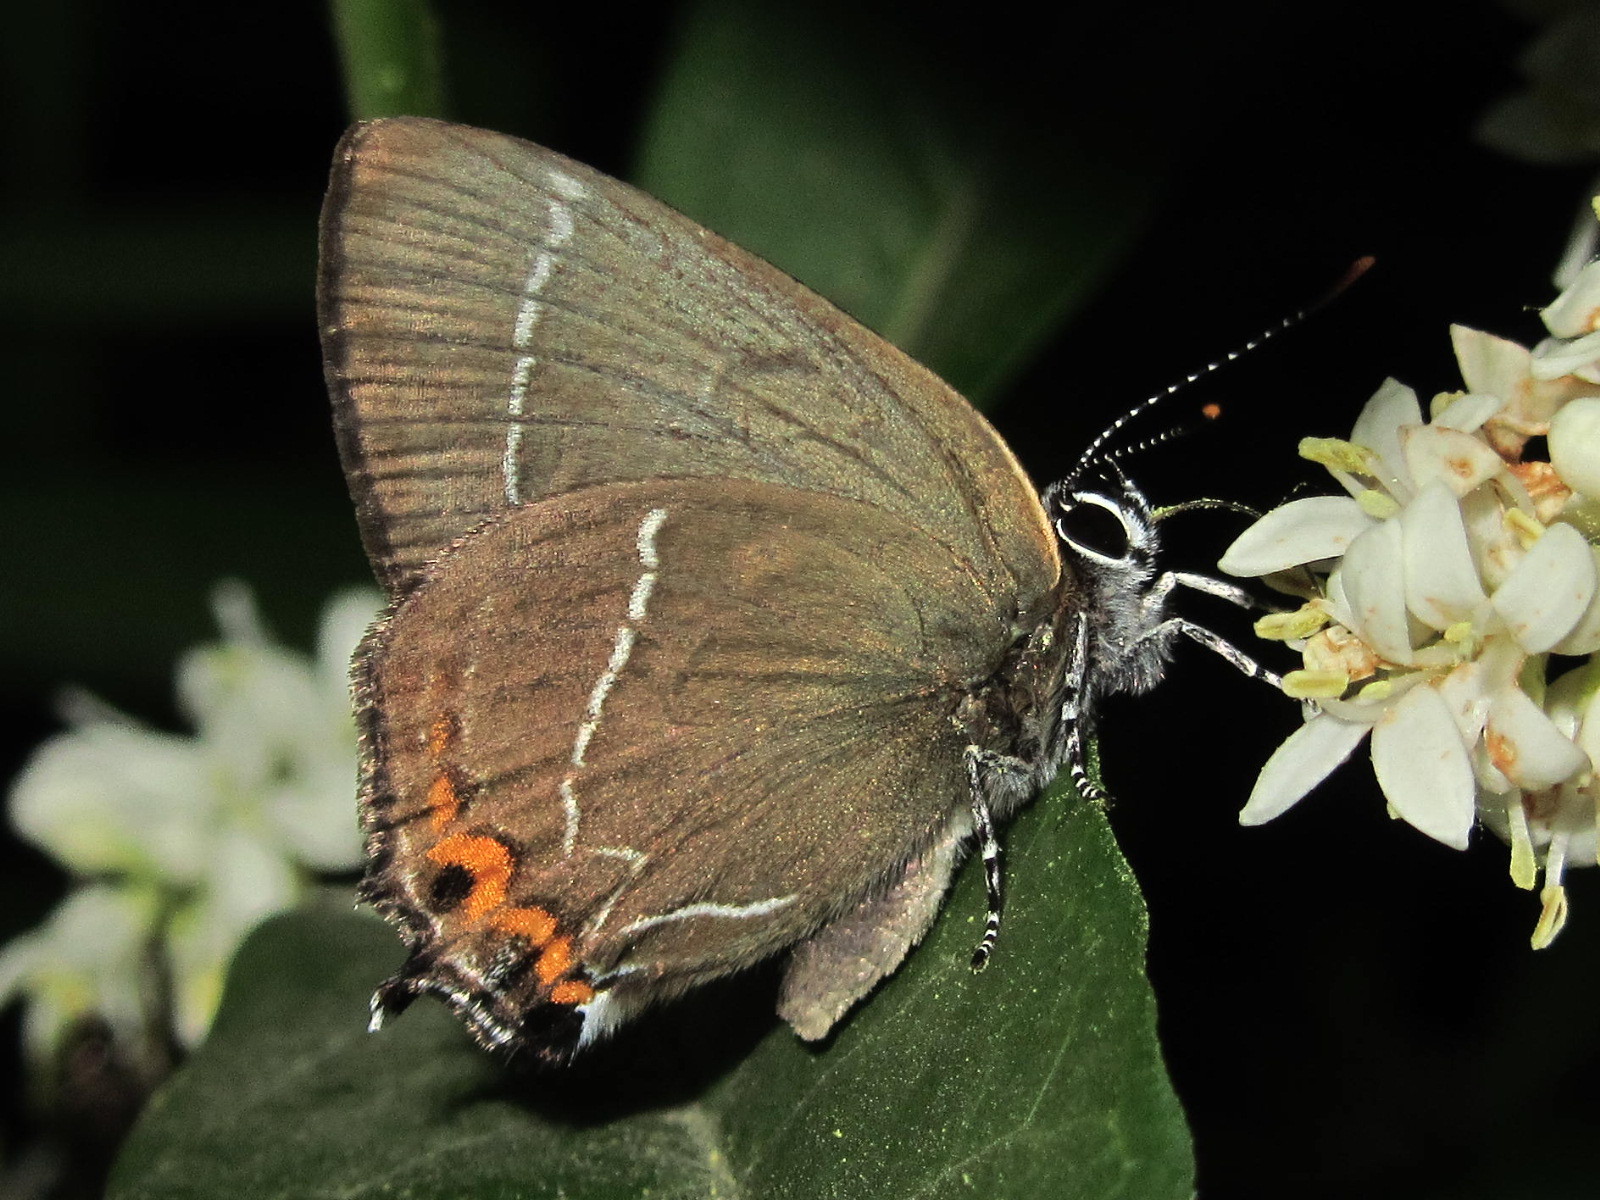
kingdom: Animalia
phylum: Arthropoda
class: Insecta
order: Lepidoptera
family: Lycaenidae
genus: Satyrium
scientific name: Satyrium w-album
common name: White-letter hairstreak
